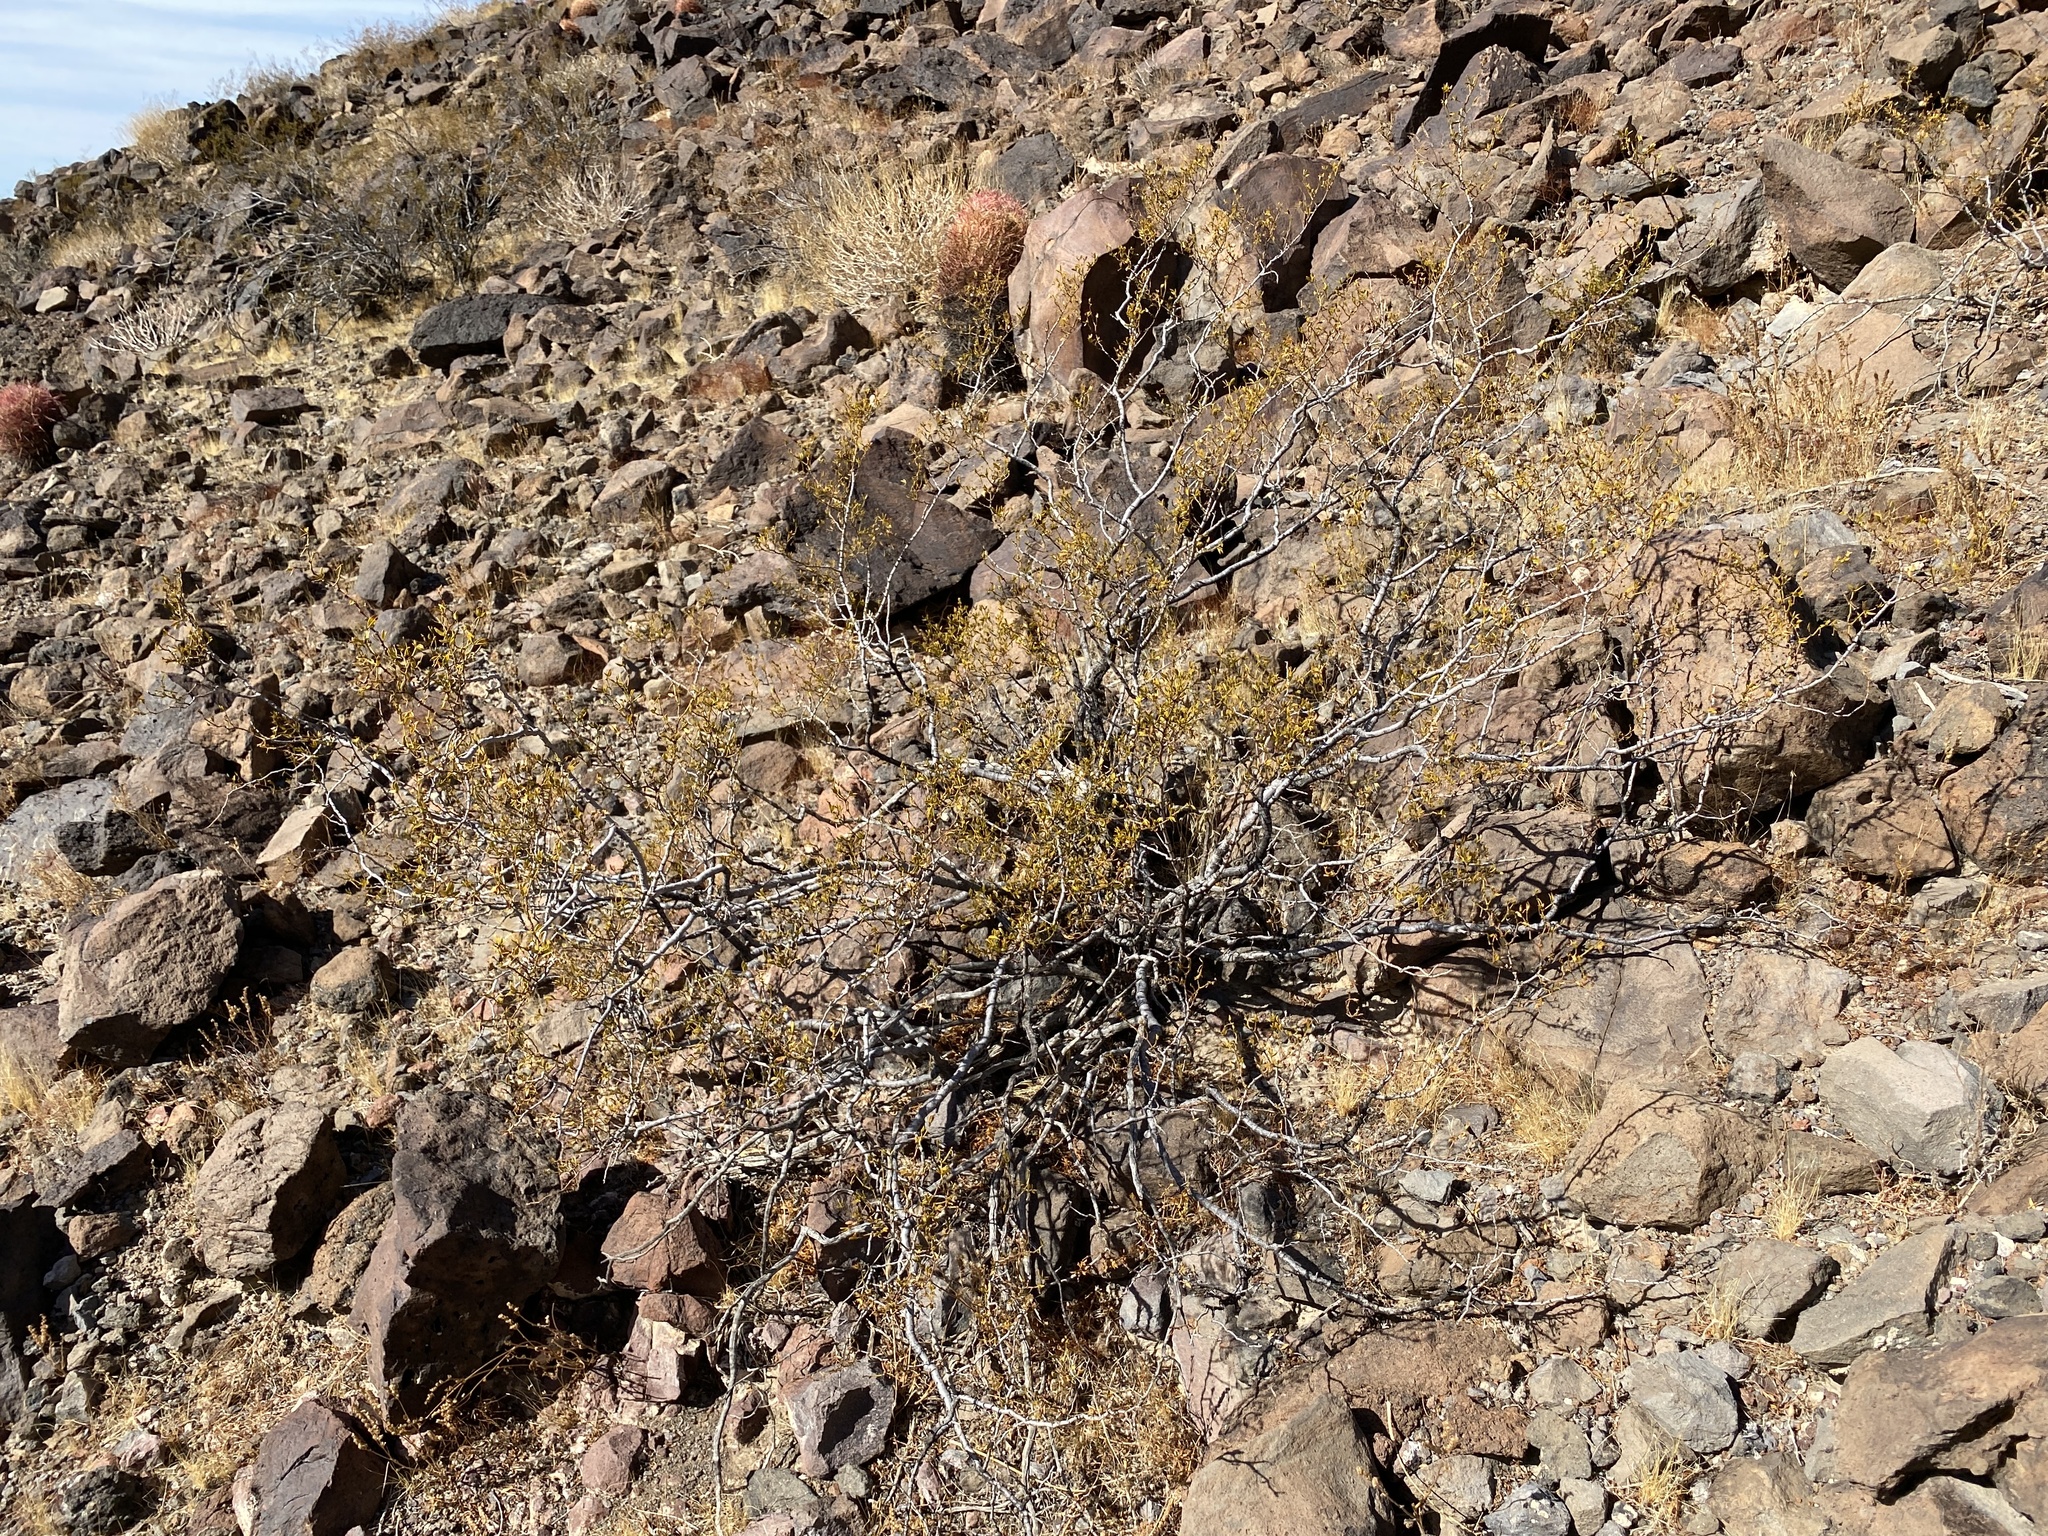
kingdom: Plantae
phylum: Tracheophyta
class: Magnoliopsida
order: Zygophyllales
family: Zygophyllaceae
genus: Larrea
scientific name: Larrea tridentata
